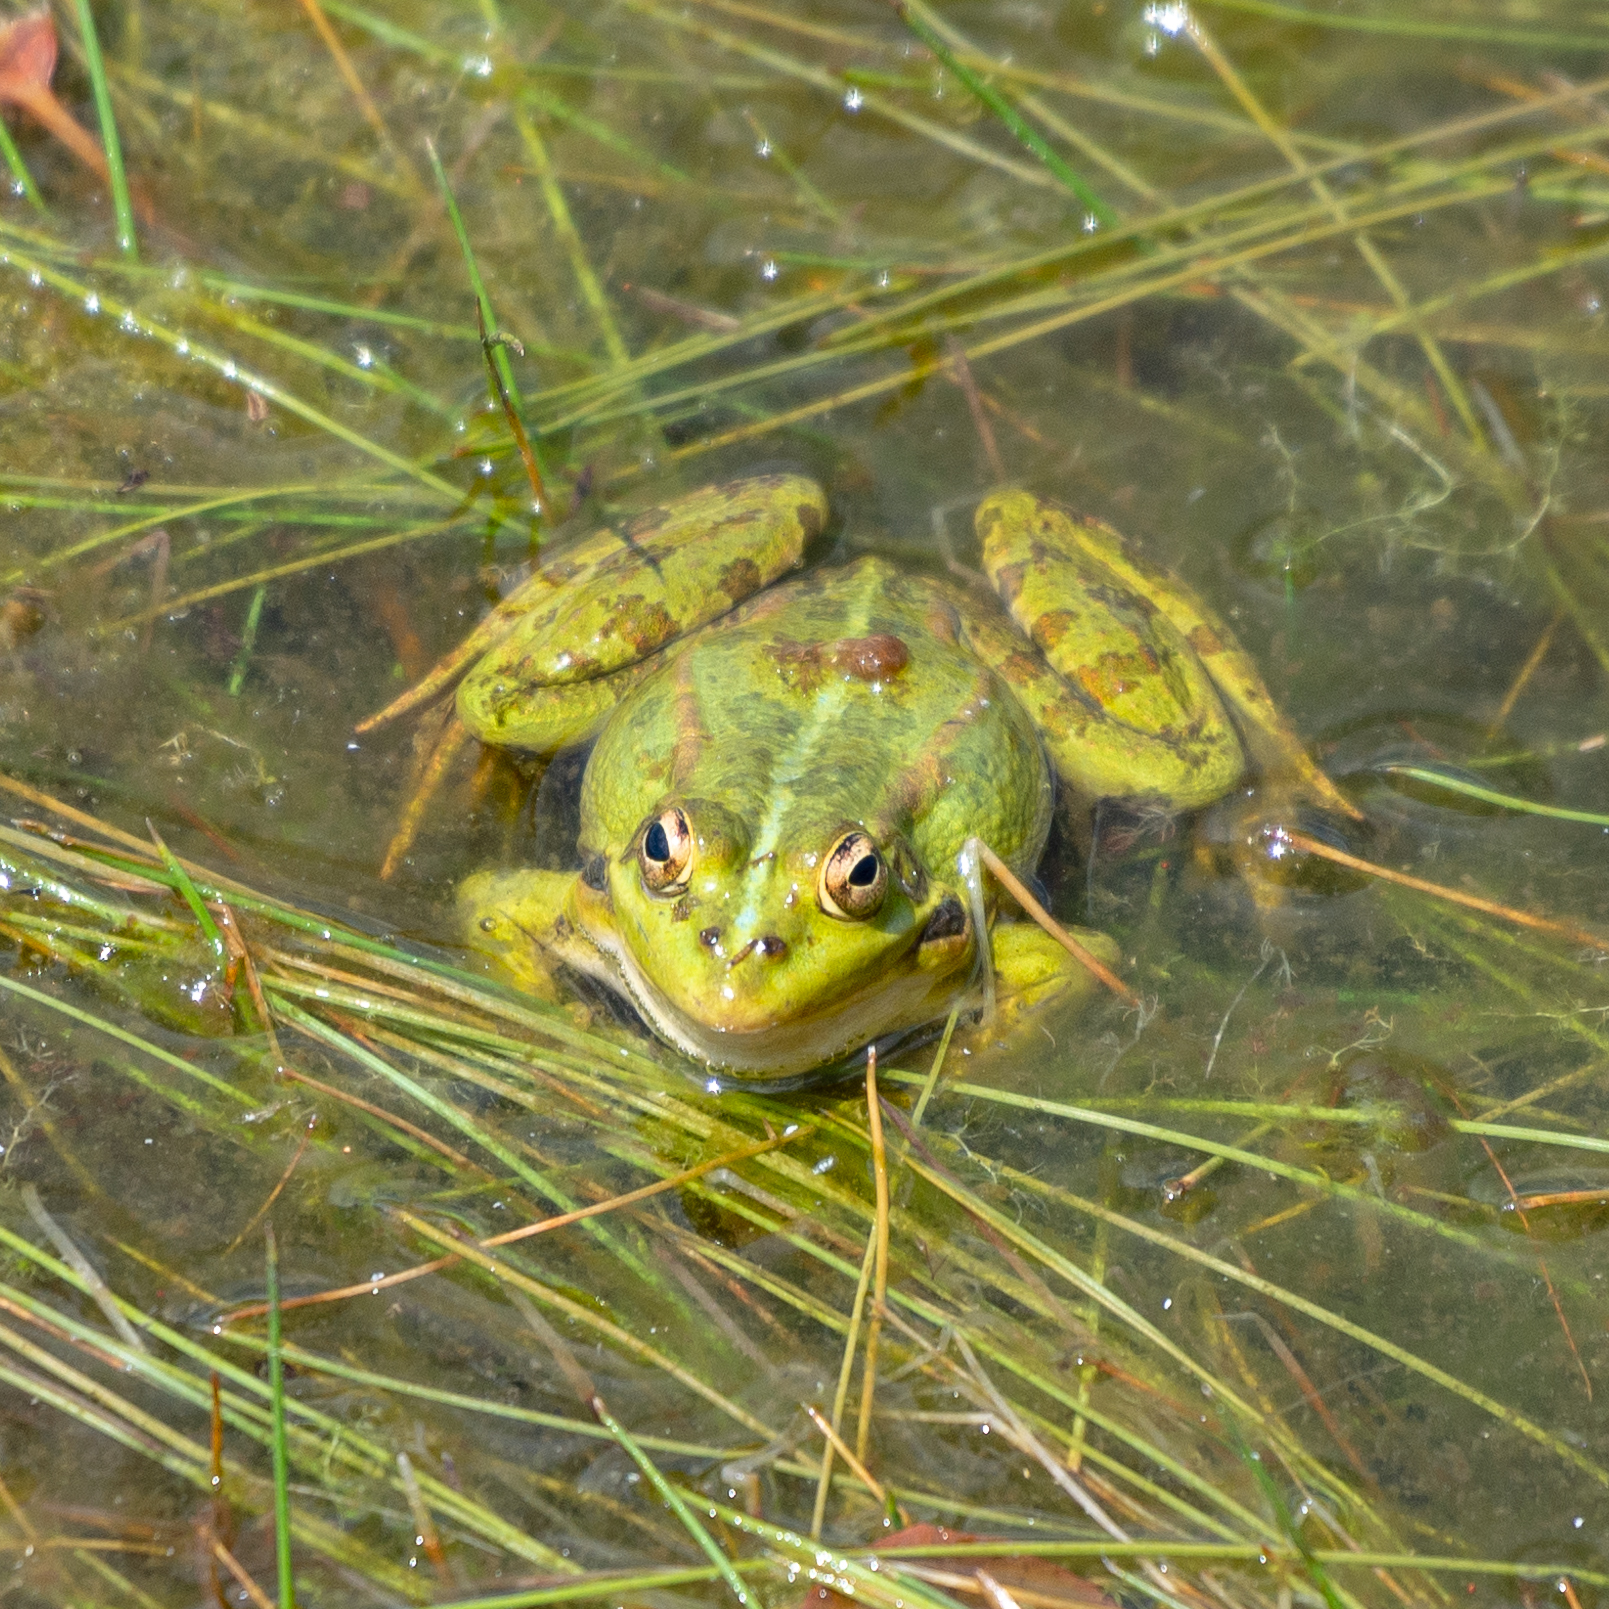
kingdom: Animalia
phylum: Chordata
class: Amphibia
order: Anura
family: Ranidae
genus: Pelophylax
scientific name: Pelophylax perezi
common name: Perez's frog
